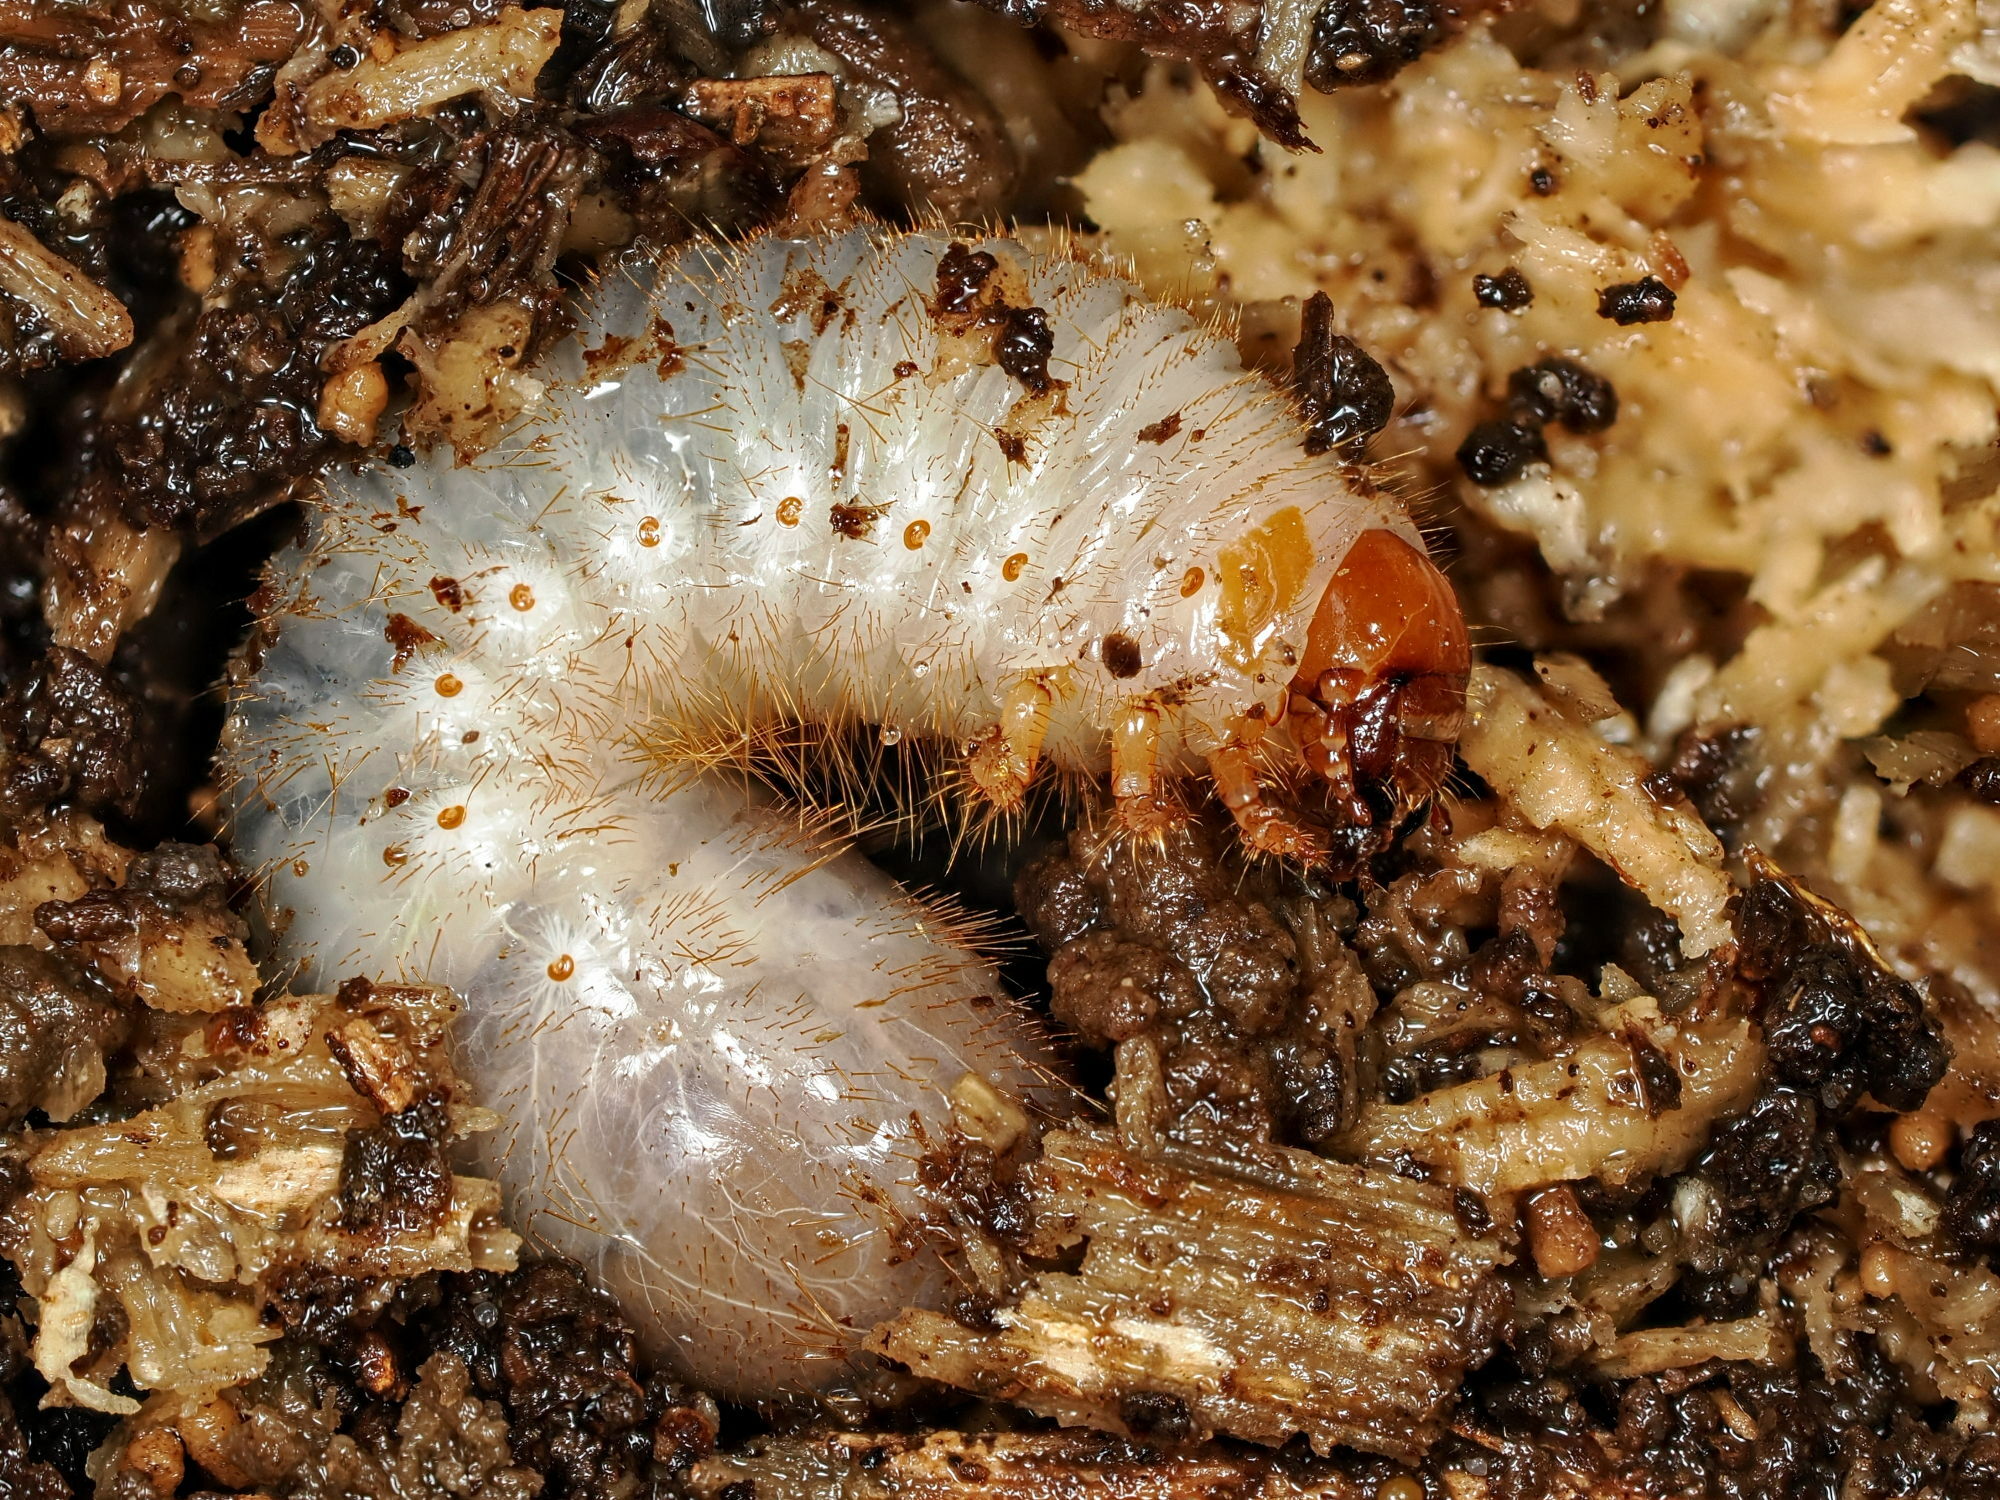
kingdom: Animalia
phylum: Arthropoda
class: Insecta
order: Coleoptera
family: Scarabaeidae
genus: Cetonia
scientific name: Cetonia aurata
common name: Rose chafer
